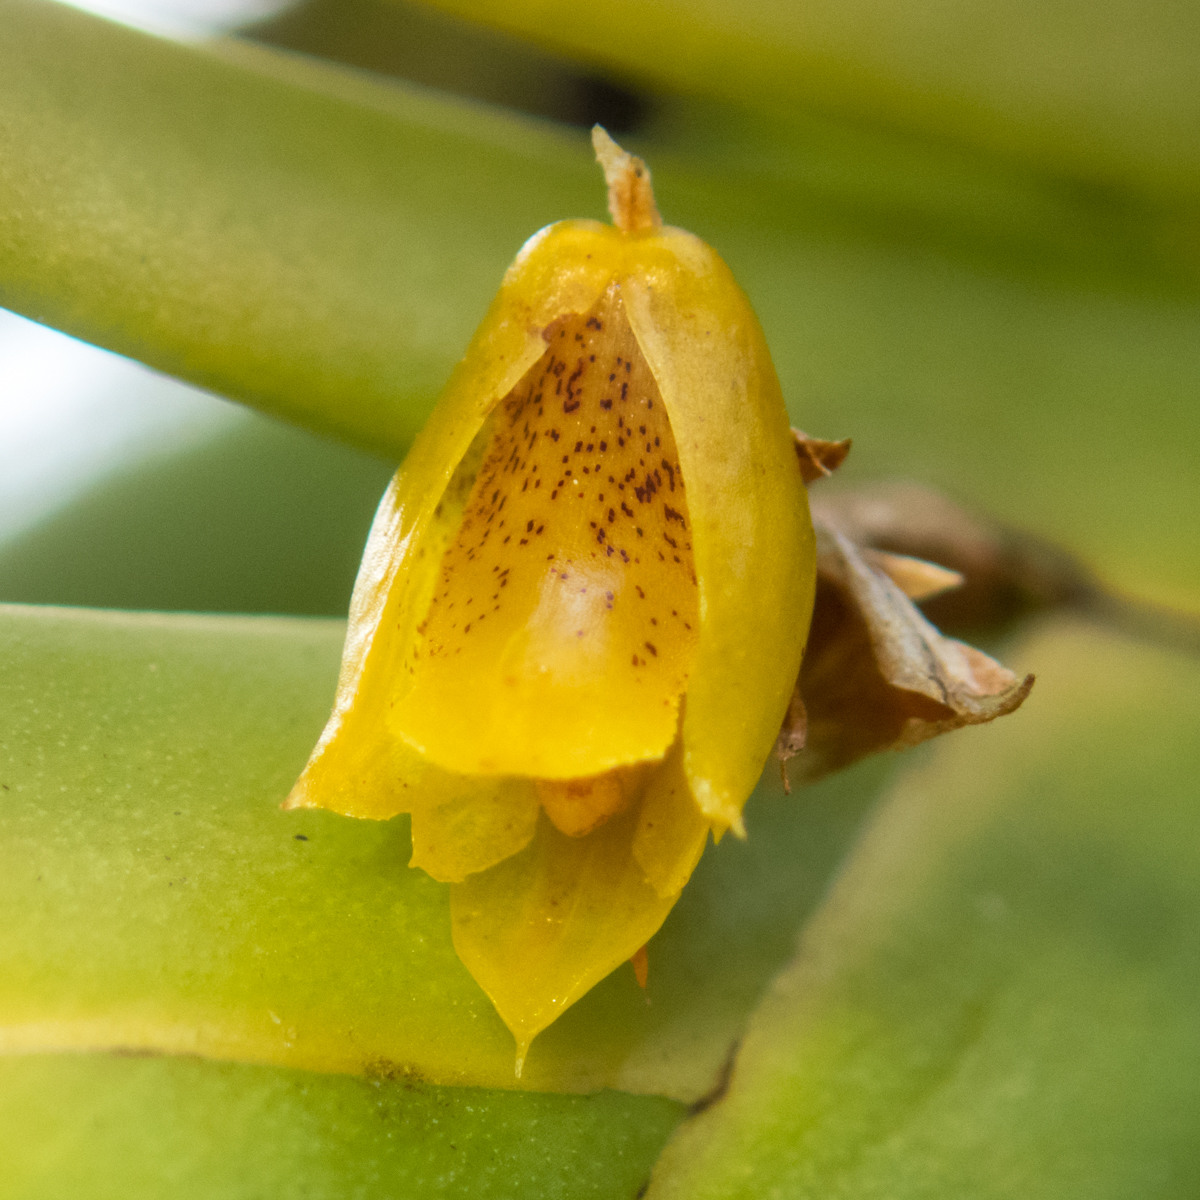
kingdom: Plantae
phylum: Tracheophyta
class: Liliopsida
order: Asparagales
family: Orchidaceae
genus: Oxystophyllum
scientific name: Oxystophyllum carnosum
